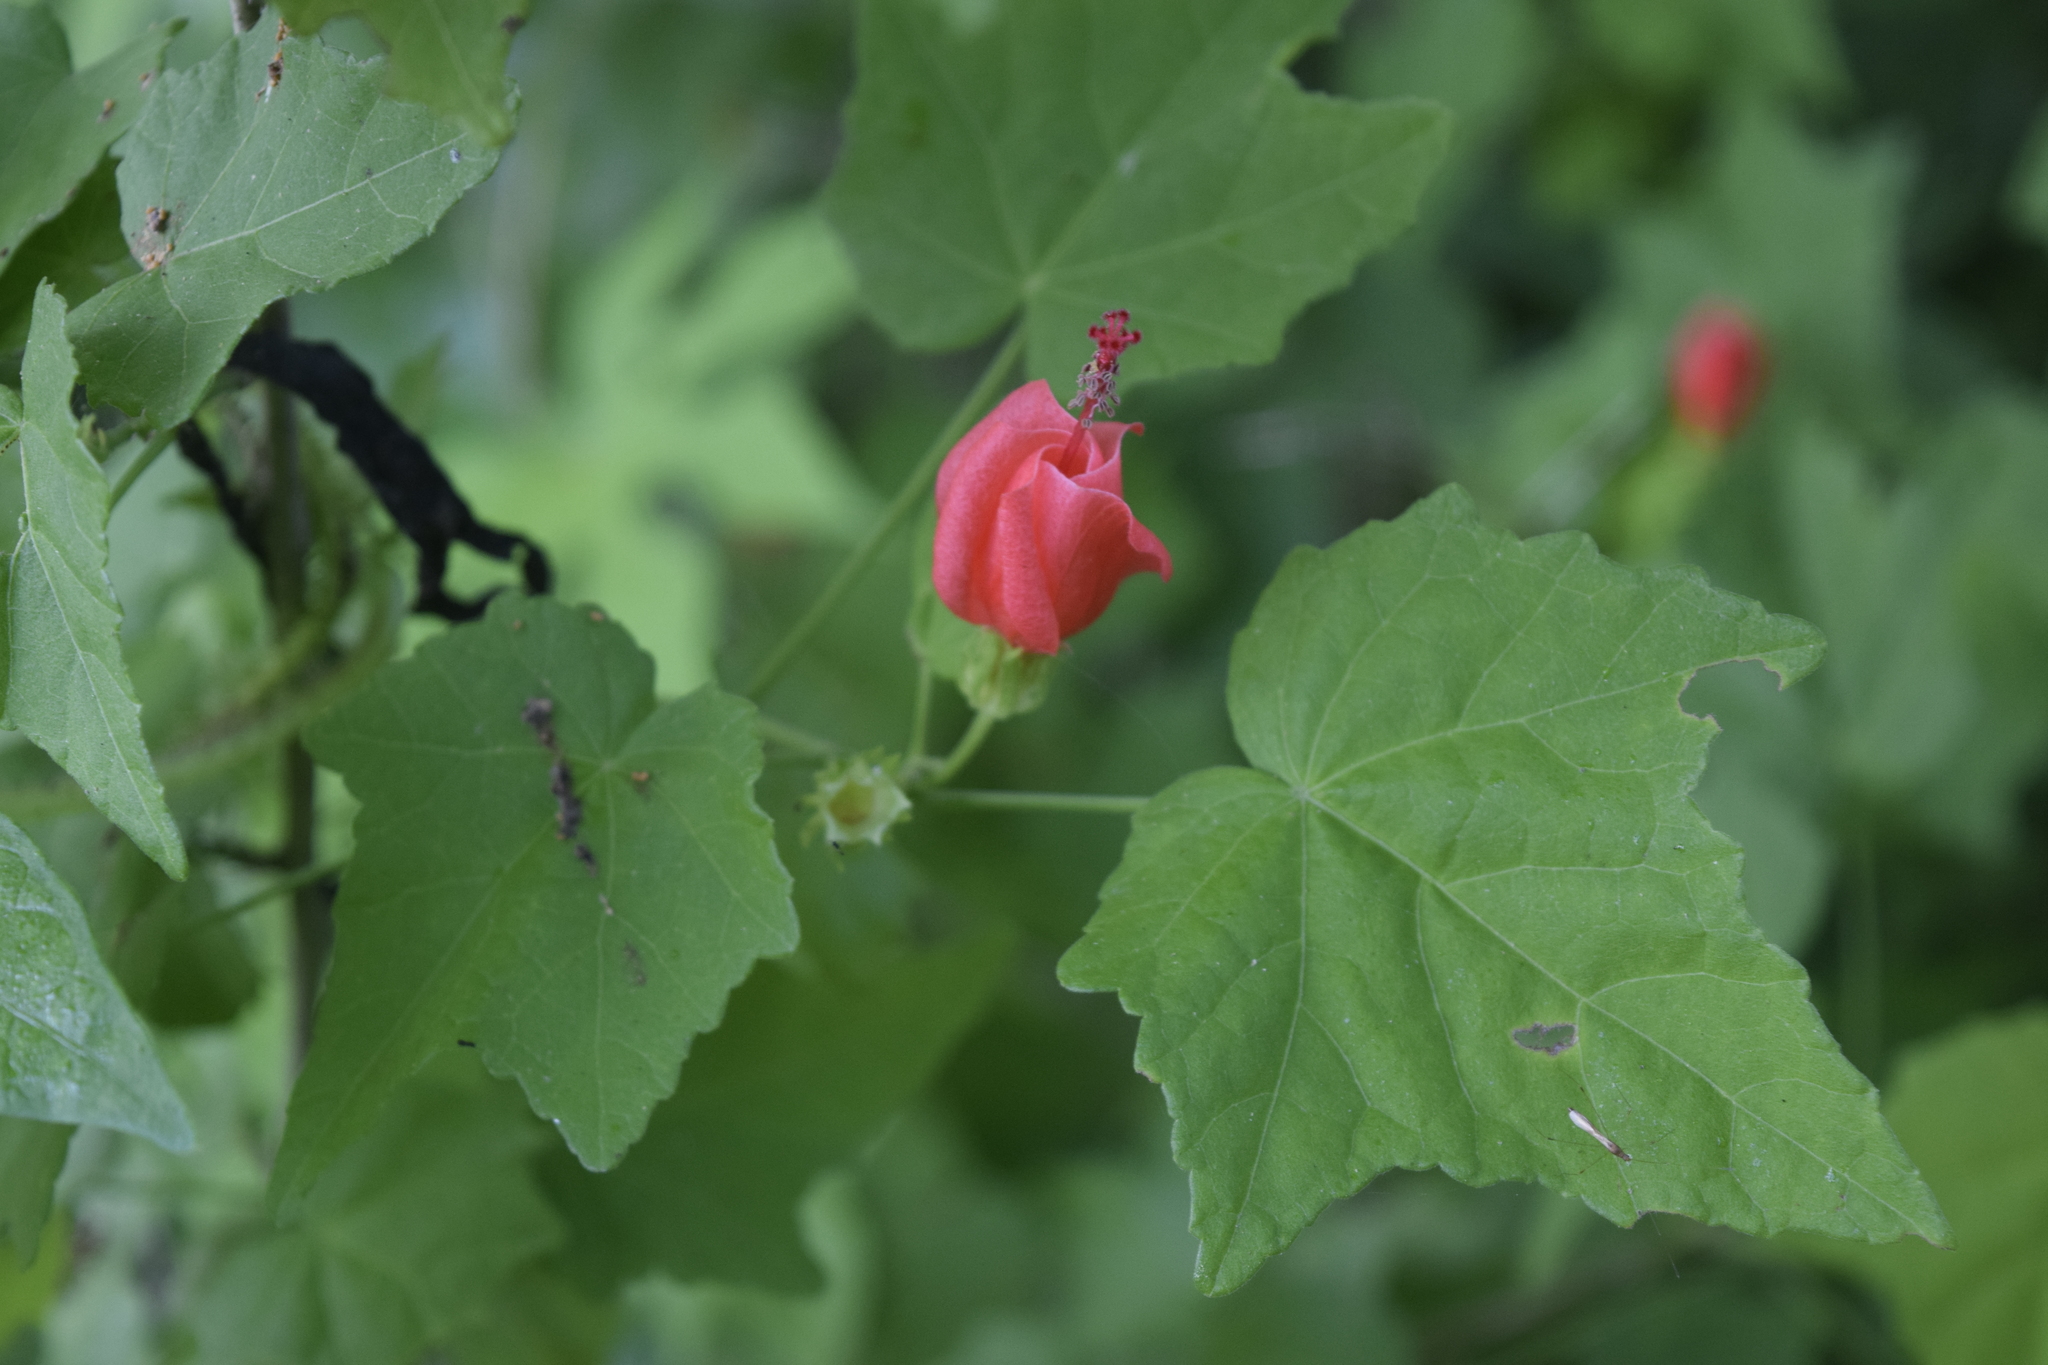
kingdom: Plantae
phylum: Tracheophyta
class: Magnoliopsida
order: Malvales
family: Malvaceae
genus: Malvaviscus
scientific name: Malvaviscus arboreus
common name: Wax mallow
